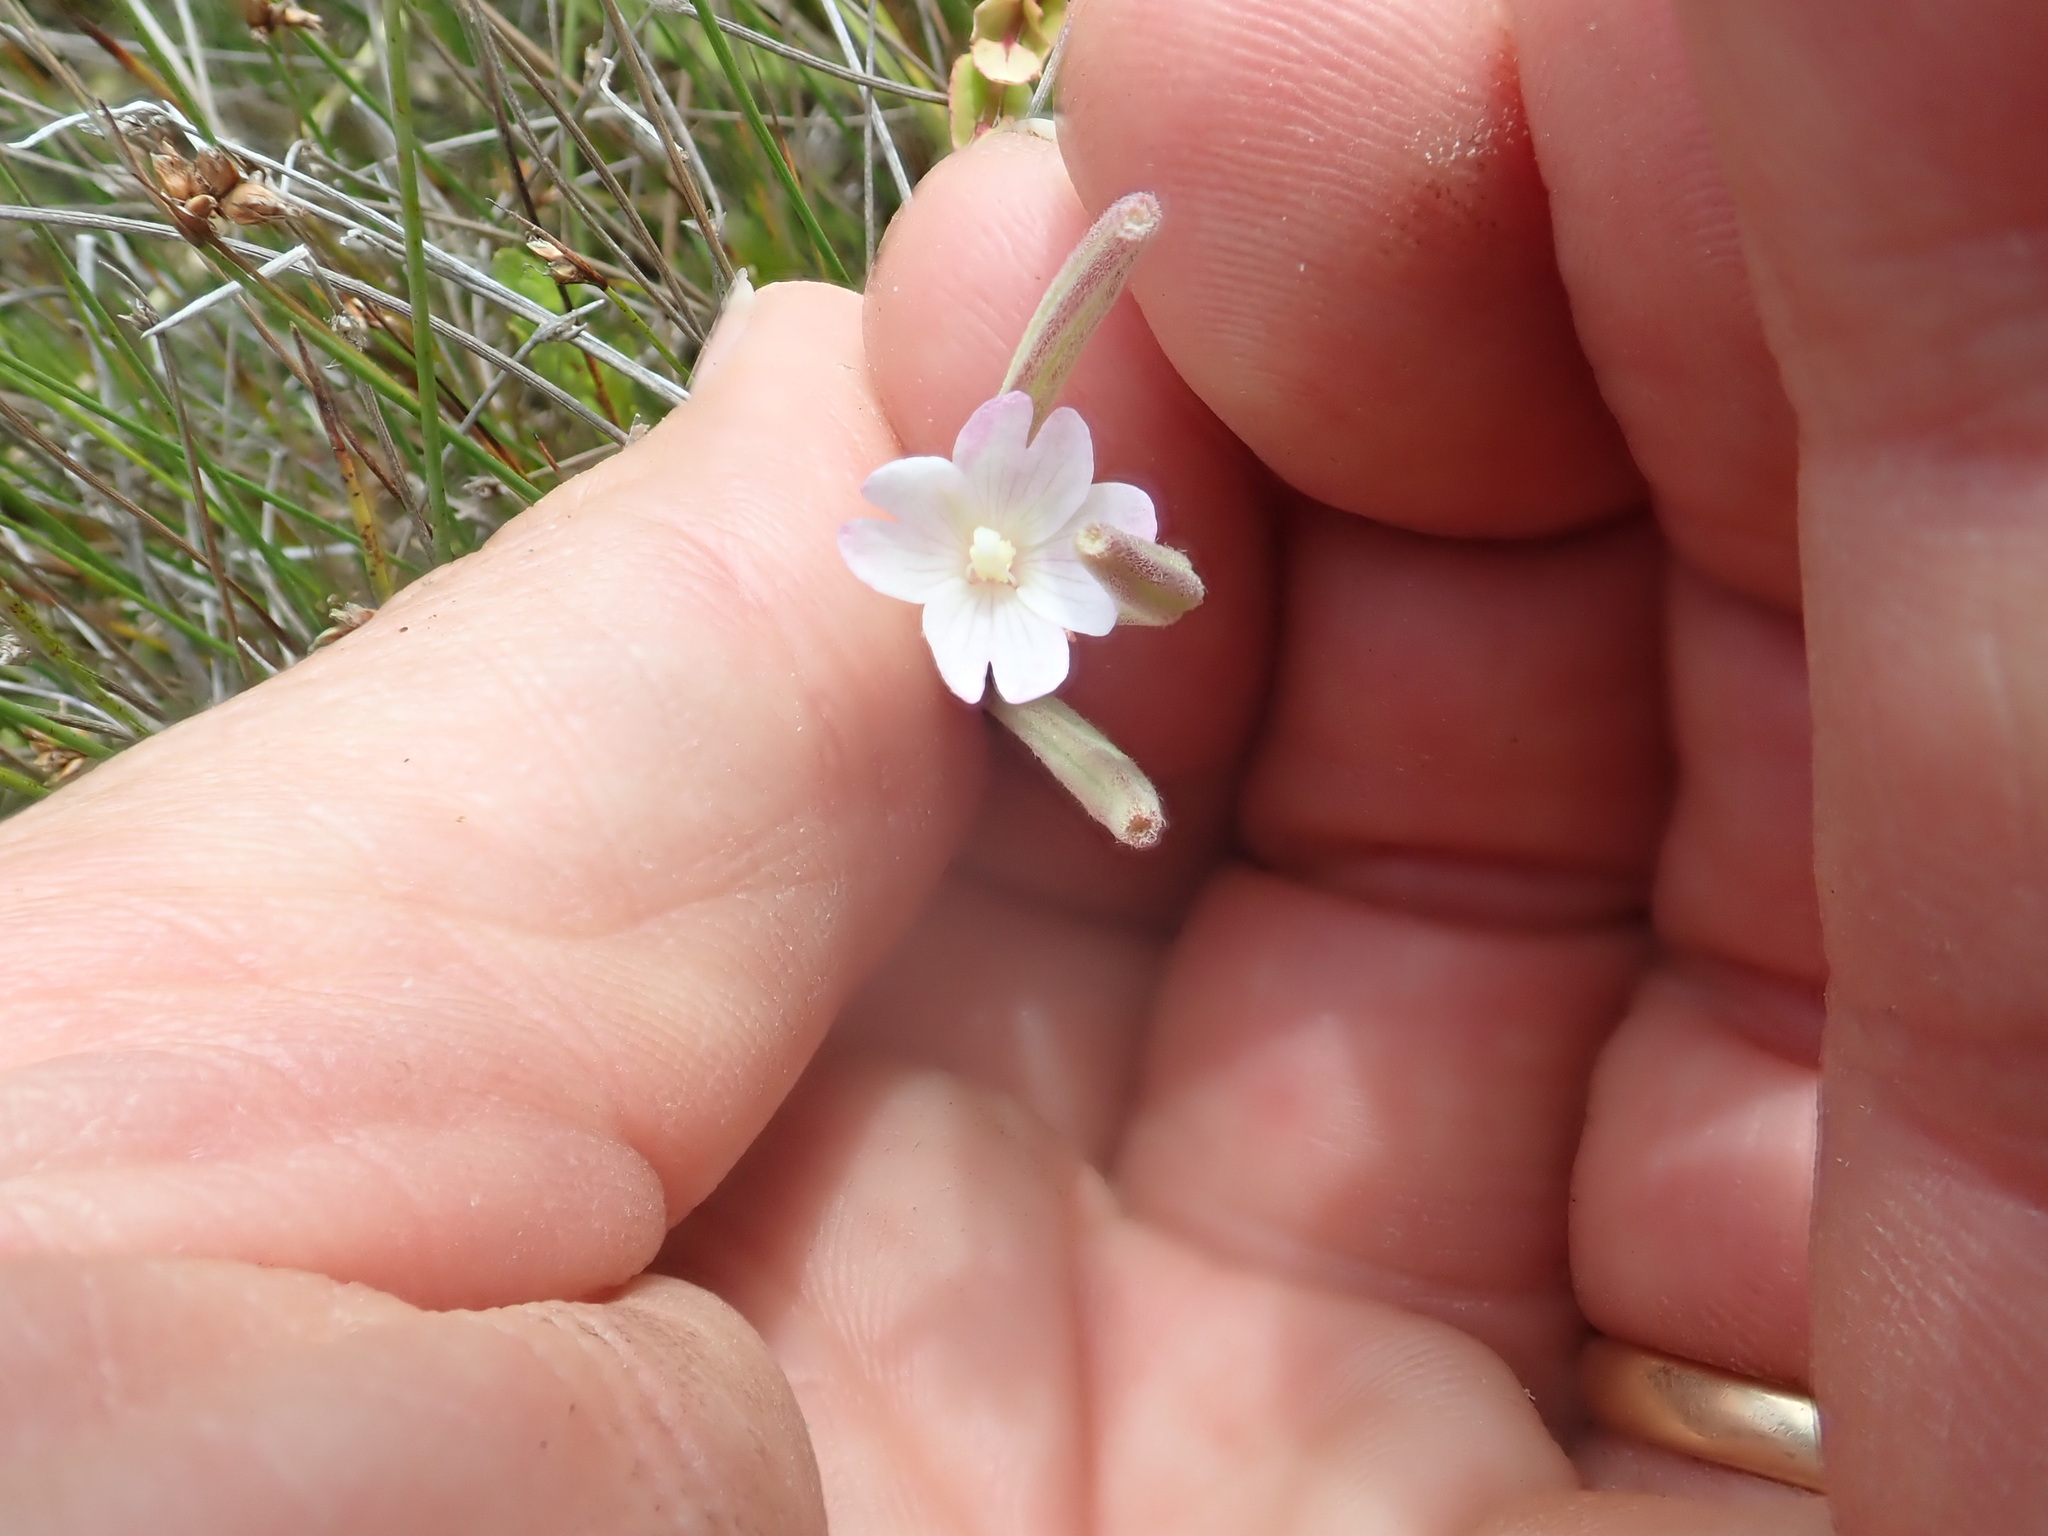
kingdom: Plantae
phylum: Tracheophyta
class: Magnoliopsida
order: Myrtales
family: Onagraceae
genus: Epilobium
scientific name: Epilobium billardiereanum
